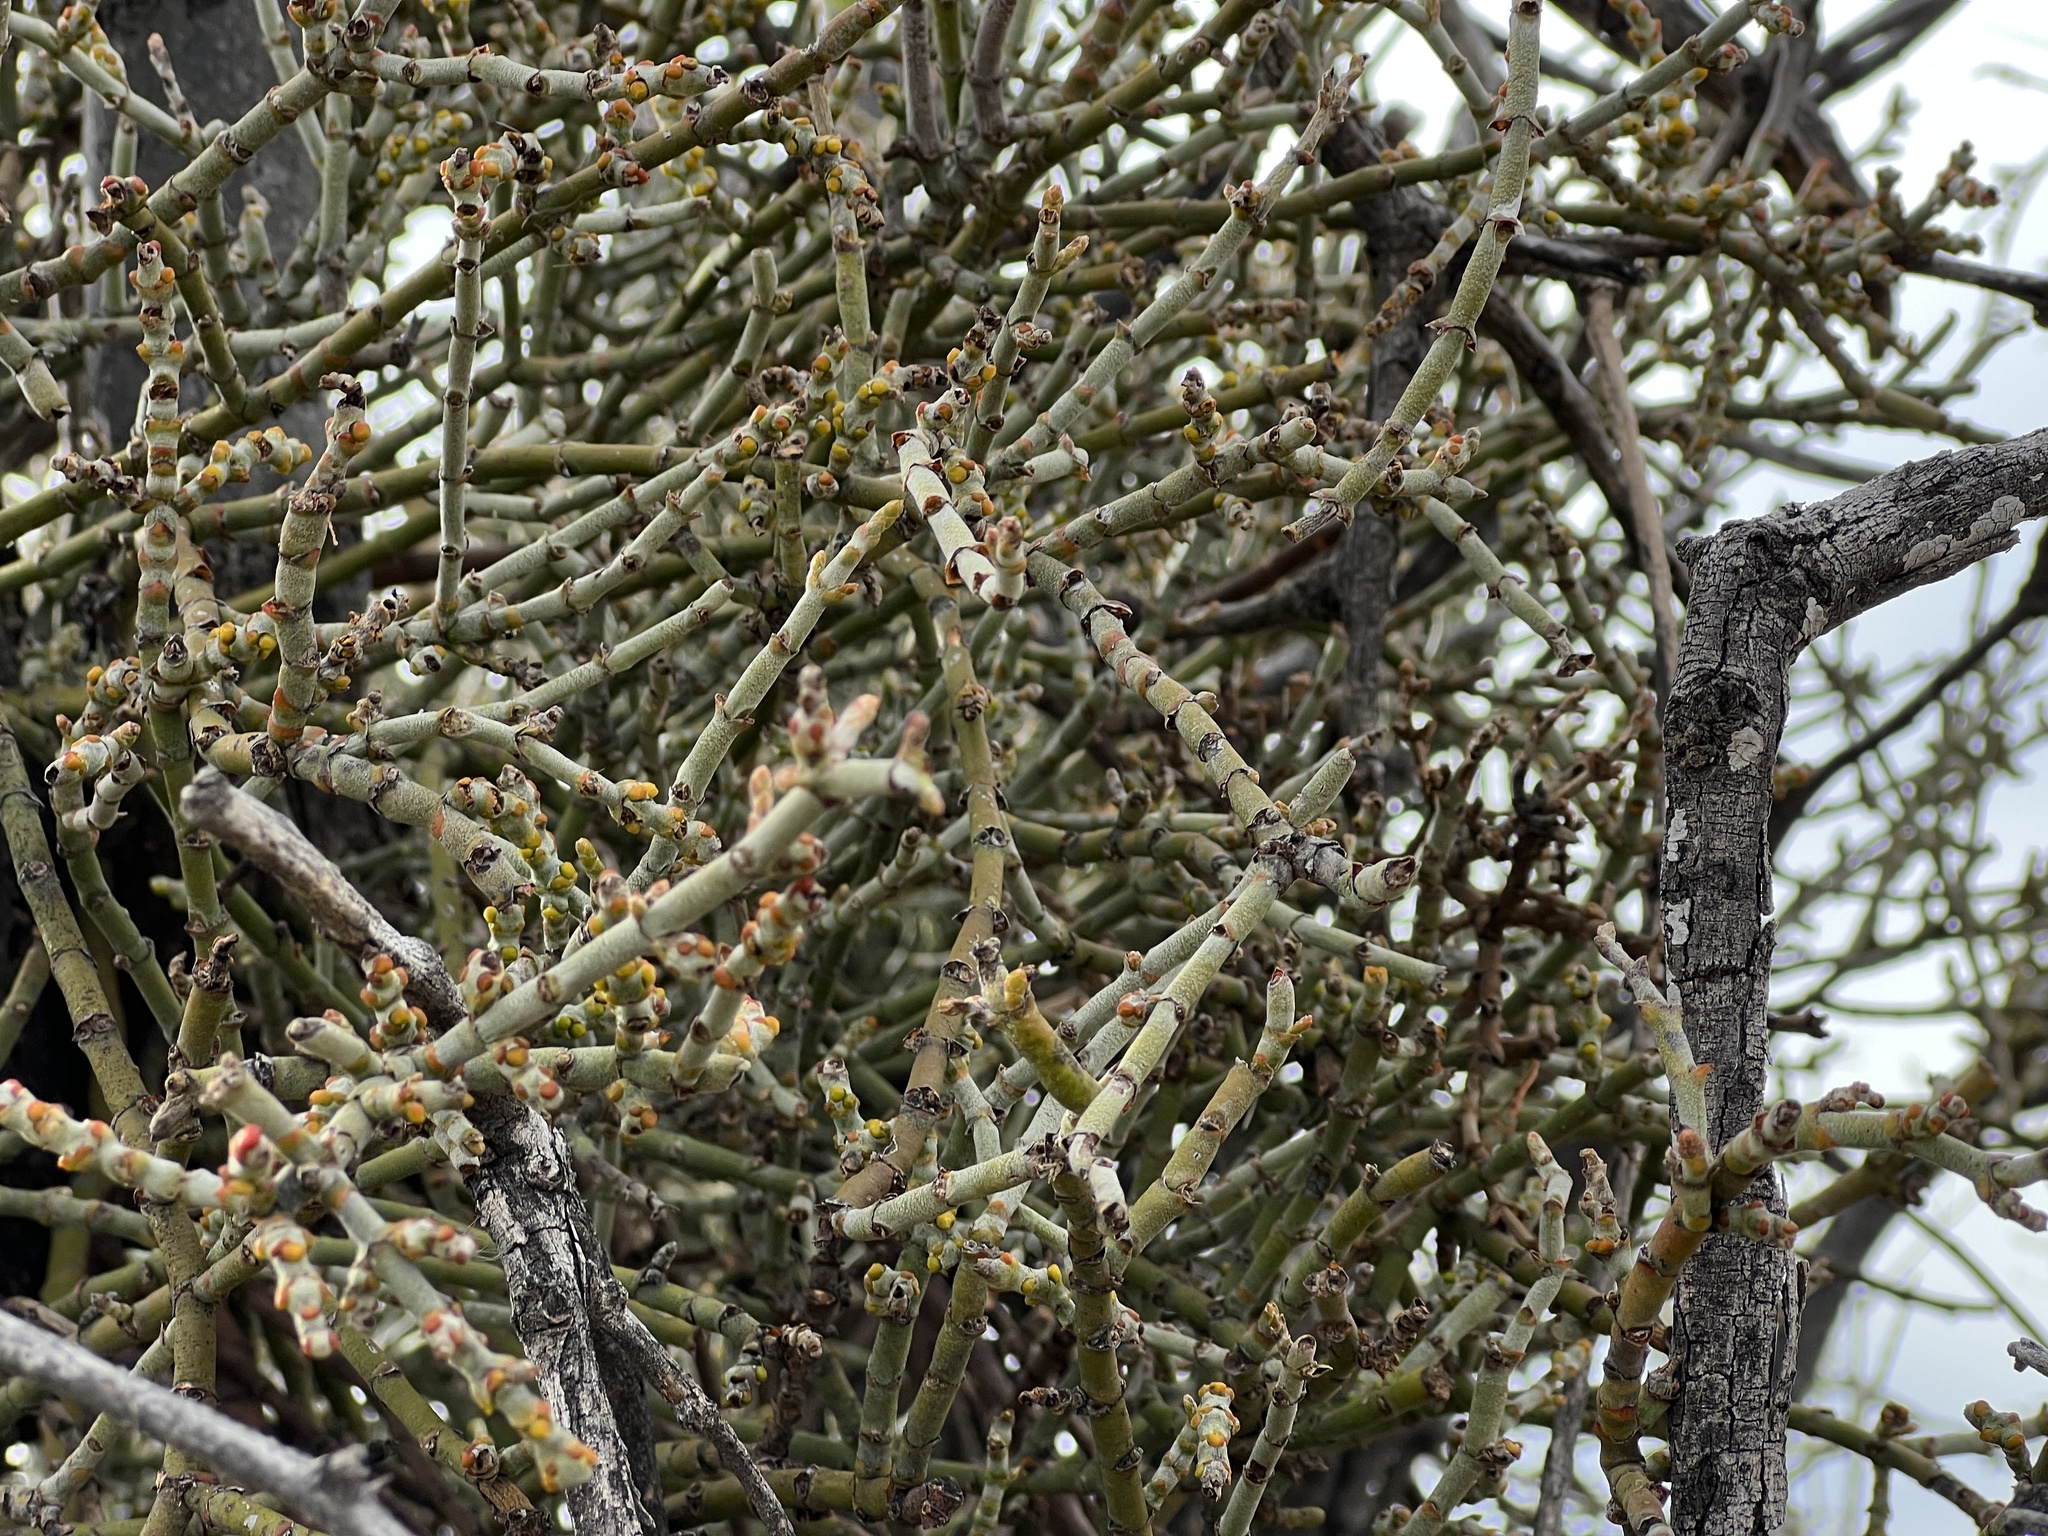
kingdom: Plantae
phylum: Tracheophyta
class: Magnoliopsida
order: Santalales
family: Viscaceae
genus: Phoradendron
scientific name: Phoradendron californicum
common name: Acacia mistletoe
